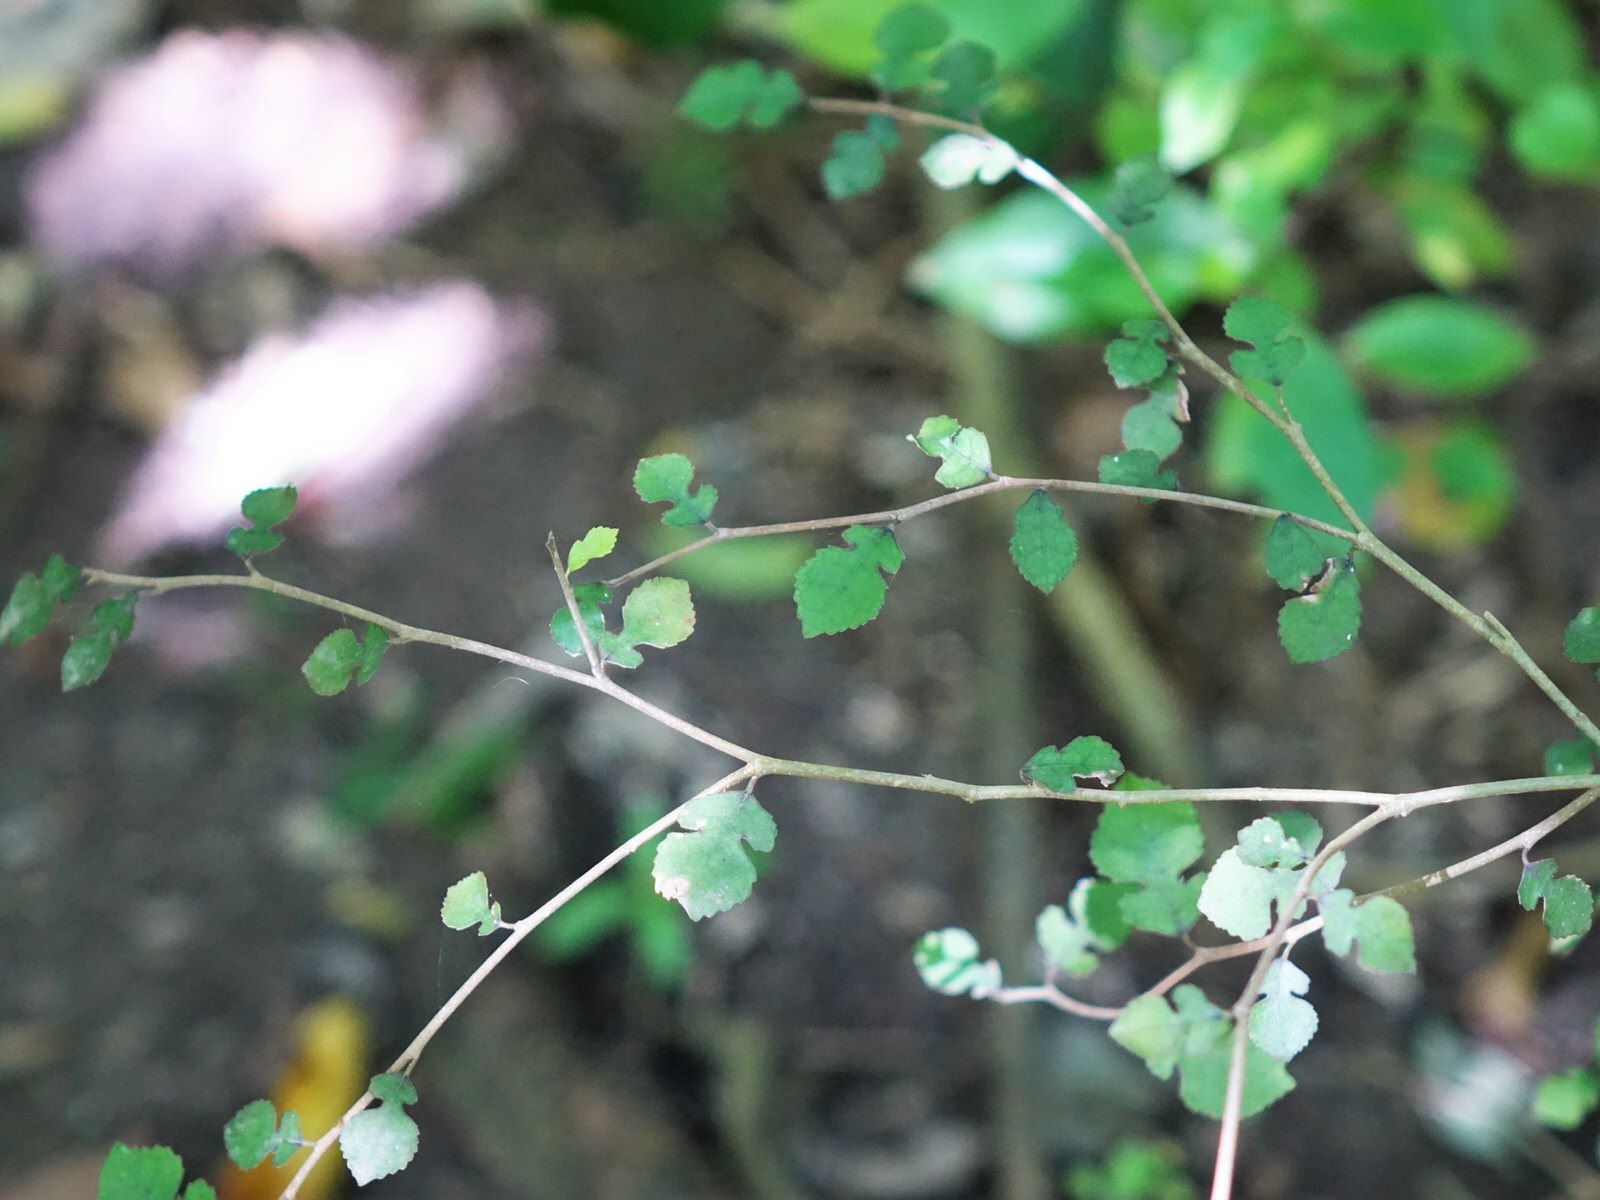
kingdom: Plantae
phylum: Tracheophyta
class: Magnoliopsida
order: Rosales
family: Moraceae
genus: Paratrophis
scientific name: Paratrophis microphylla
